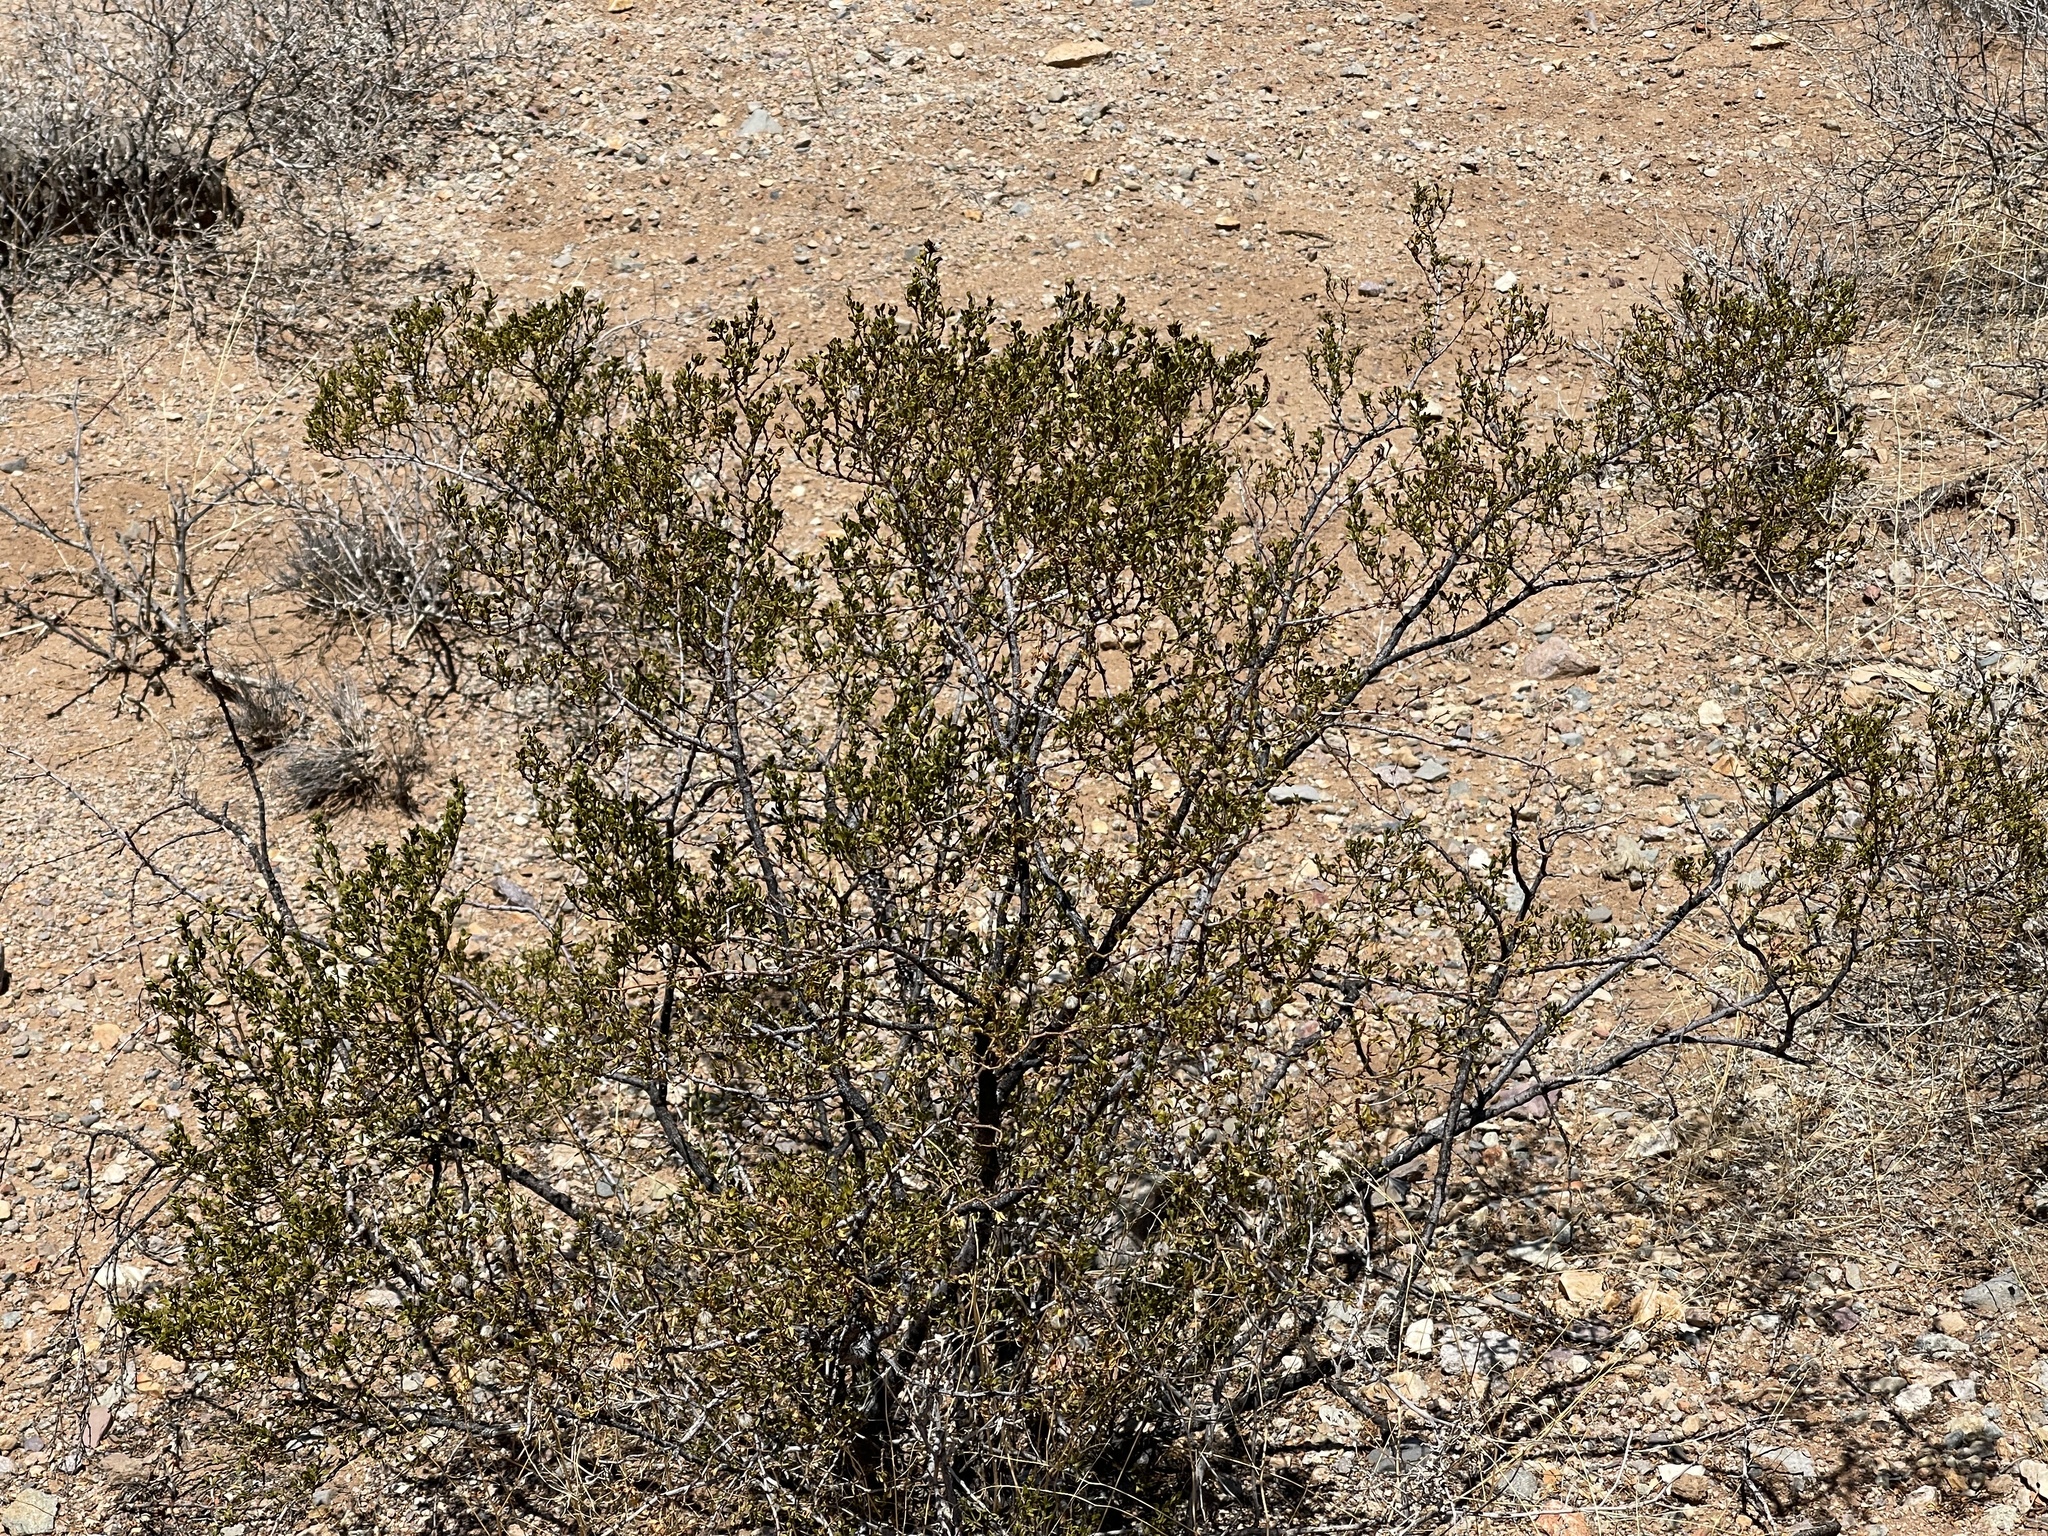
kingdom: Plantae
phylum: Tracheophyta
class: Magnoliopsida
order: Zygophyllales
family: Zygophyllaceae
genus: Larrea
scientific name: Larrea tridentata
